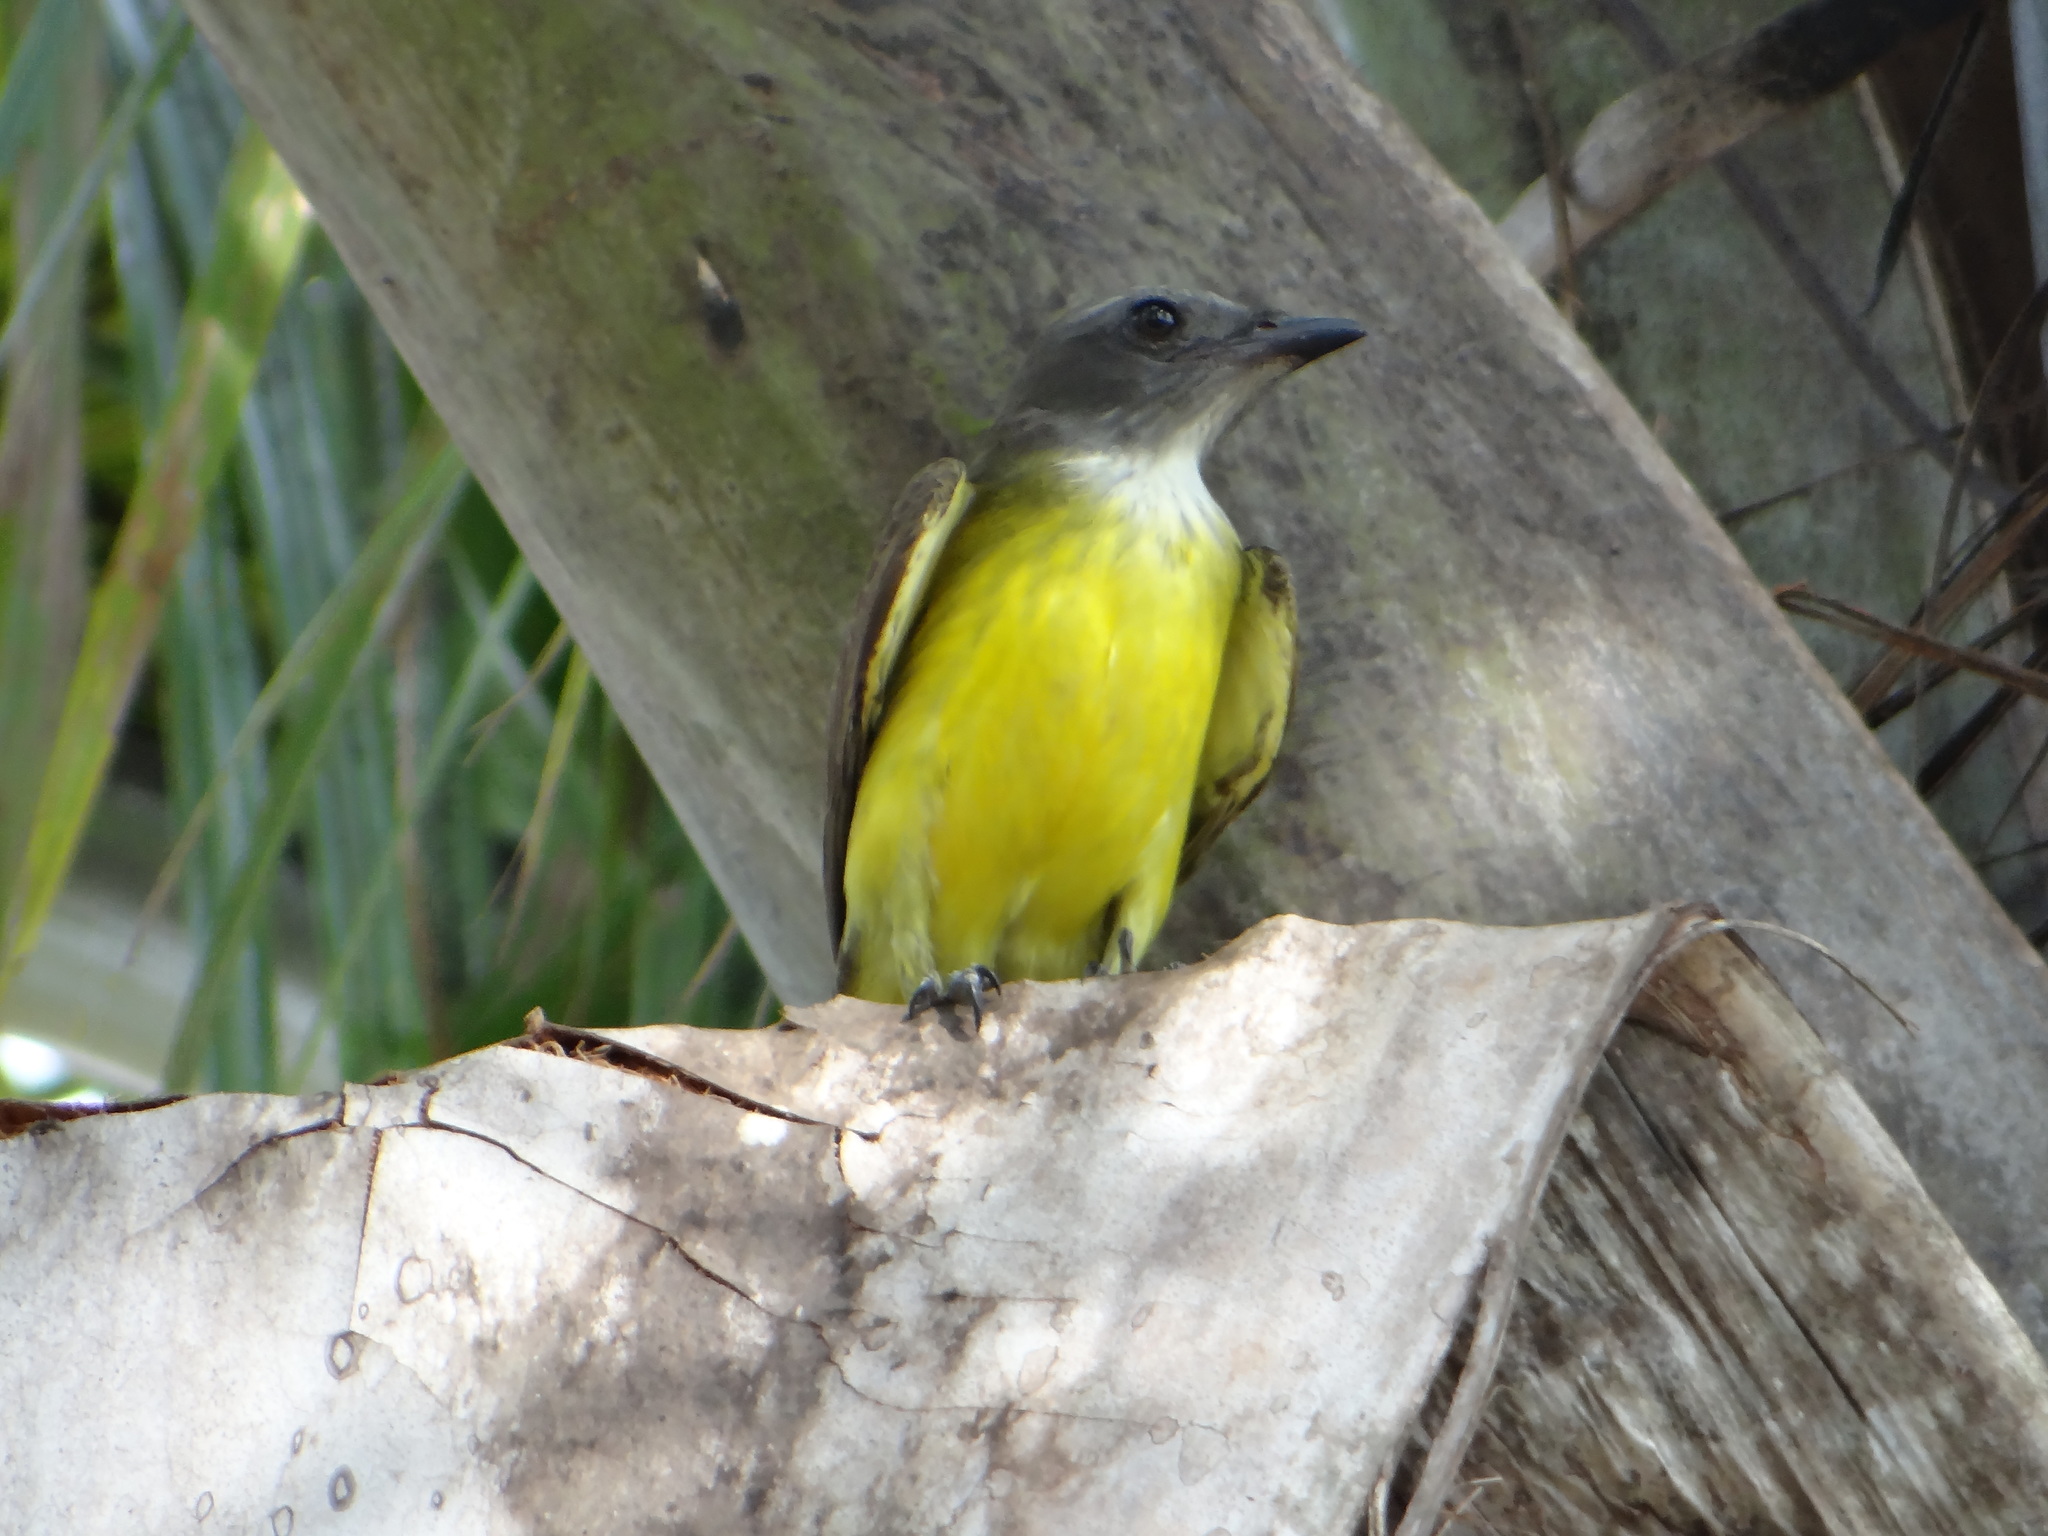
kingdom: Animalia
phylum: Chordata
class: Aves
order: Passeriformes
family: Tyrannidae
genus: Tyrannopsis
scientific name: Tyrannopsis sulphurea
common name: Sulphury flycatcher
